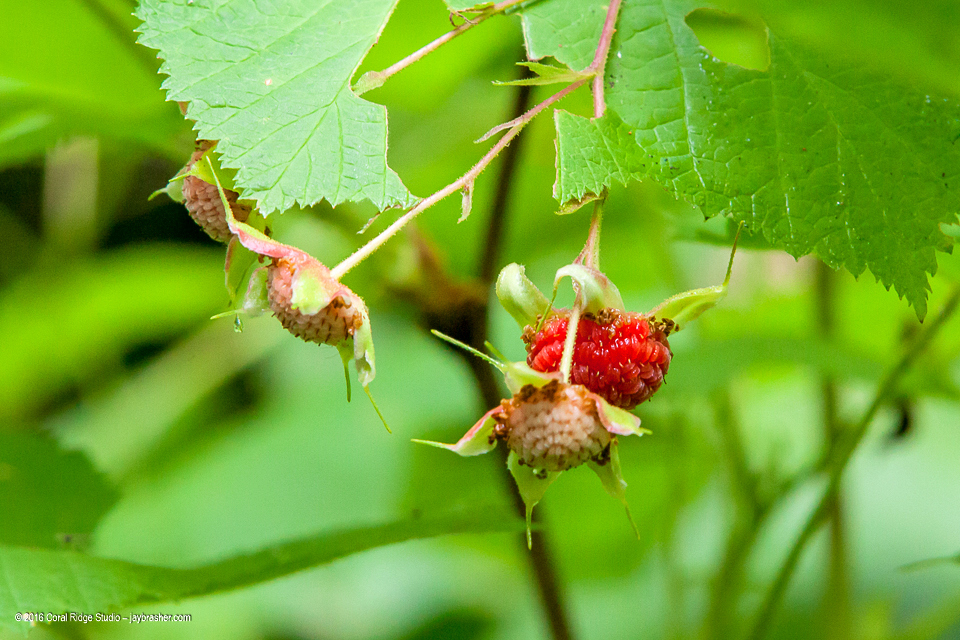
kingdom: Plantae
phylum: Tracheophyta
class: Magnoliopsida
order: Rosales
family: Rosaceae
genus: Rubus
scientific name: Rubus parviflorus
